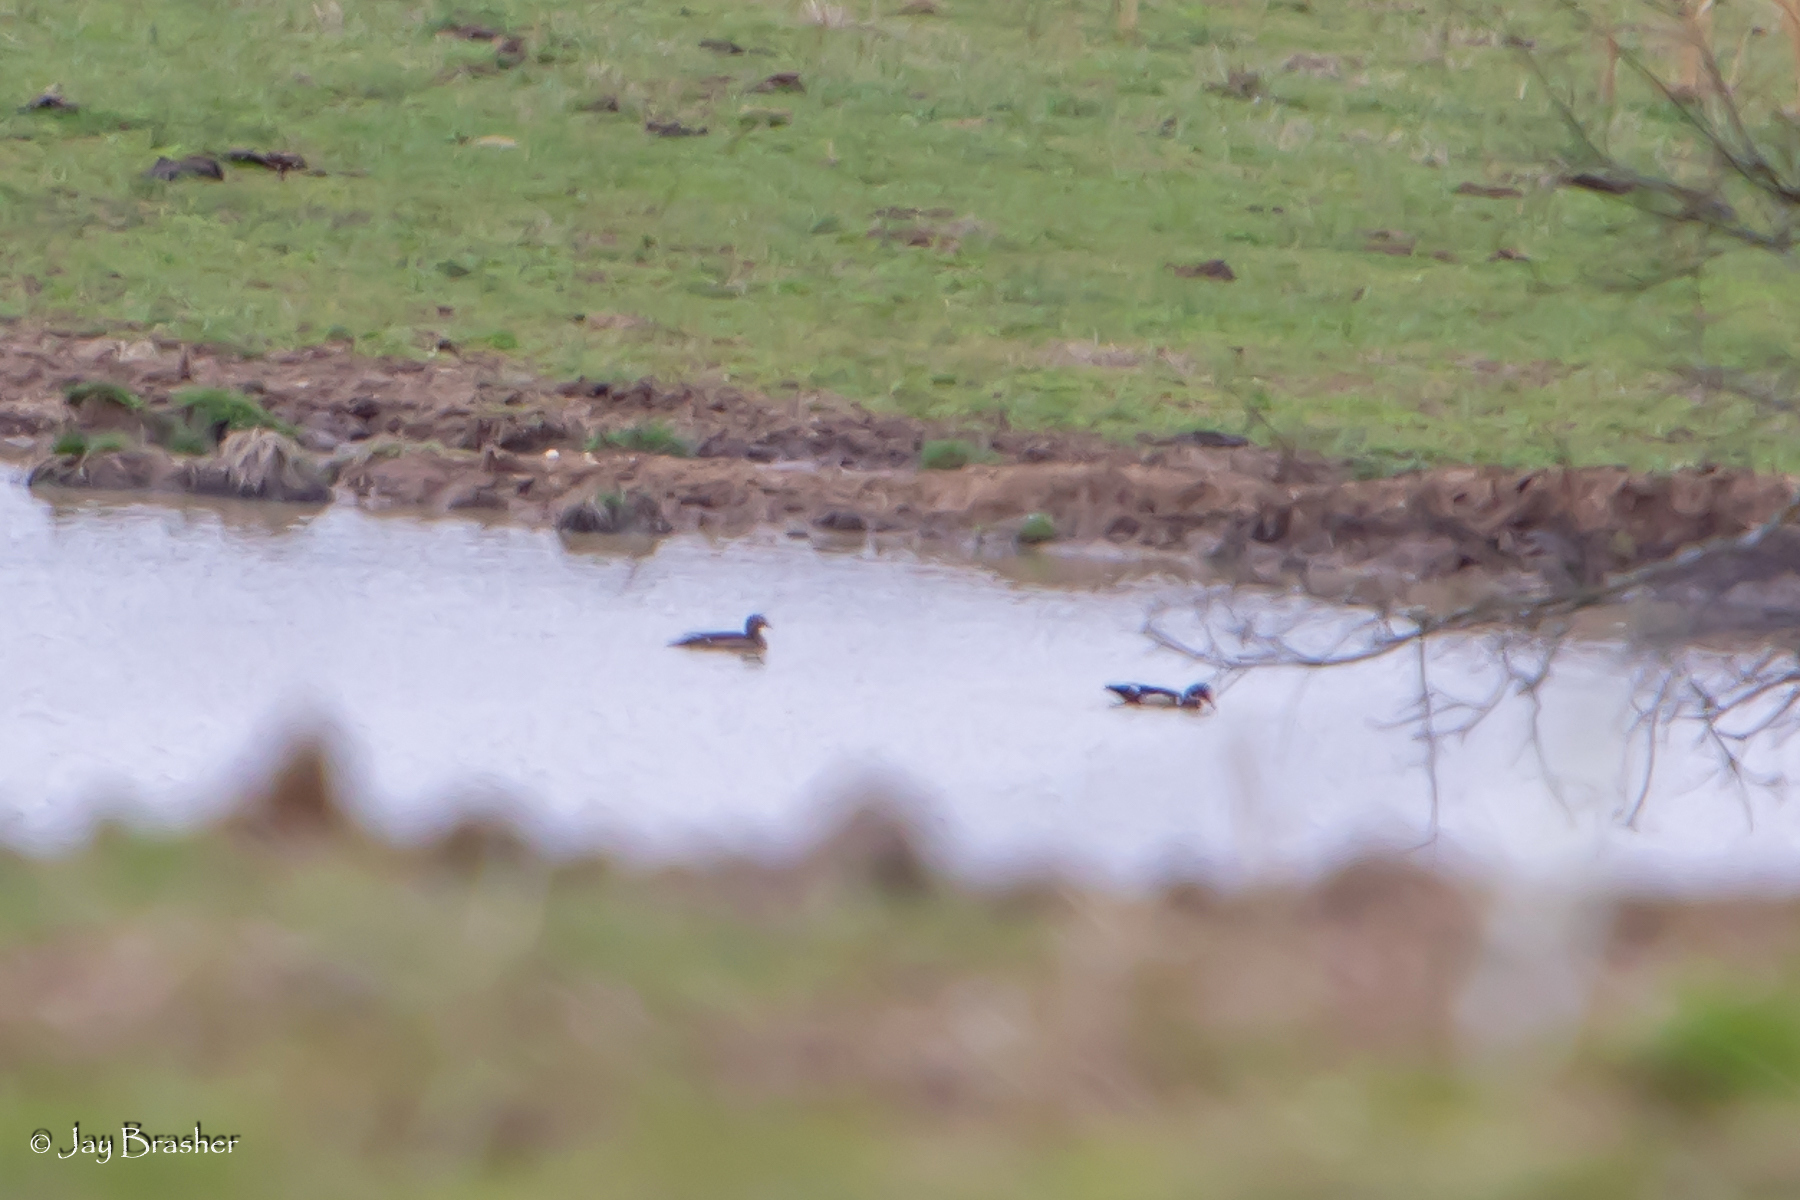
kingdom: Animalia
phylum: Chordata
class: Aves
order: Anseriformes
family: Anatidae
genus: Aix
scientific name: Aix sponsa
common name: Wood duck
